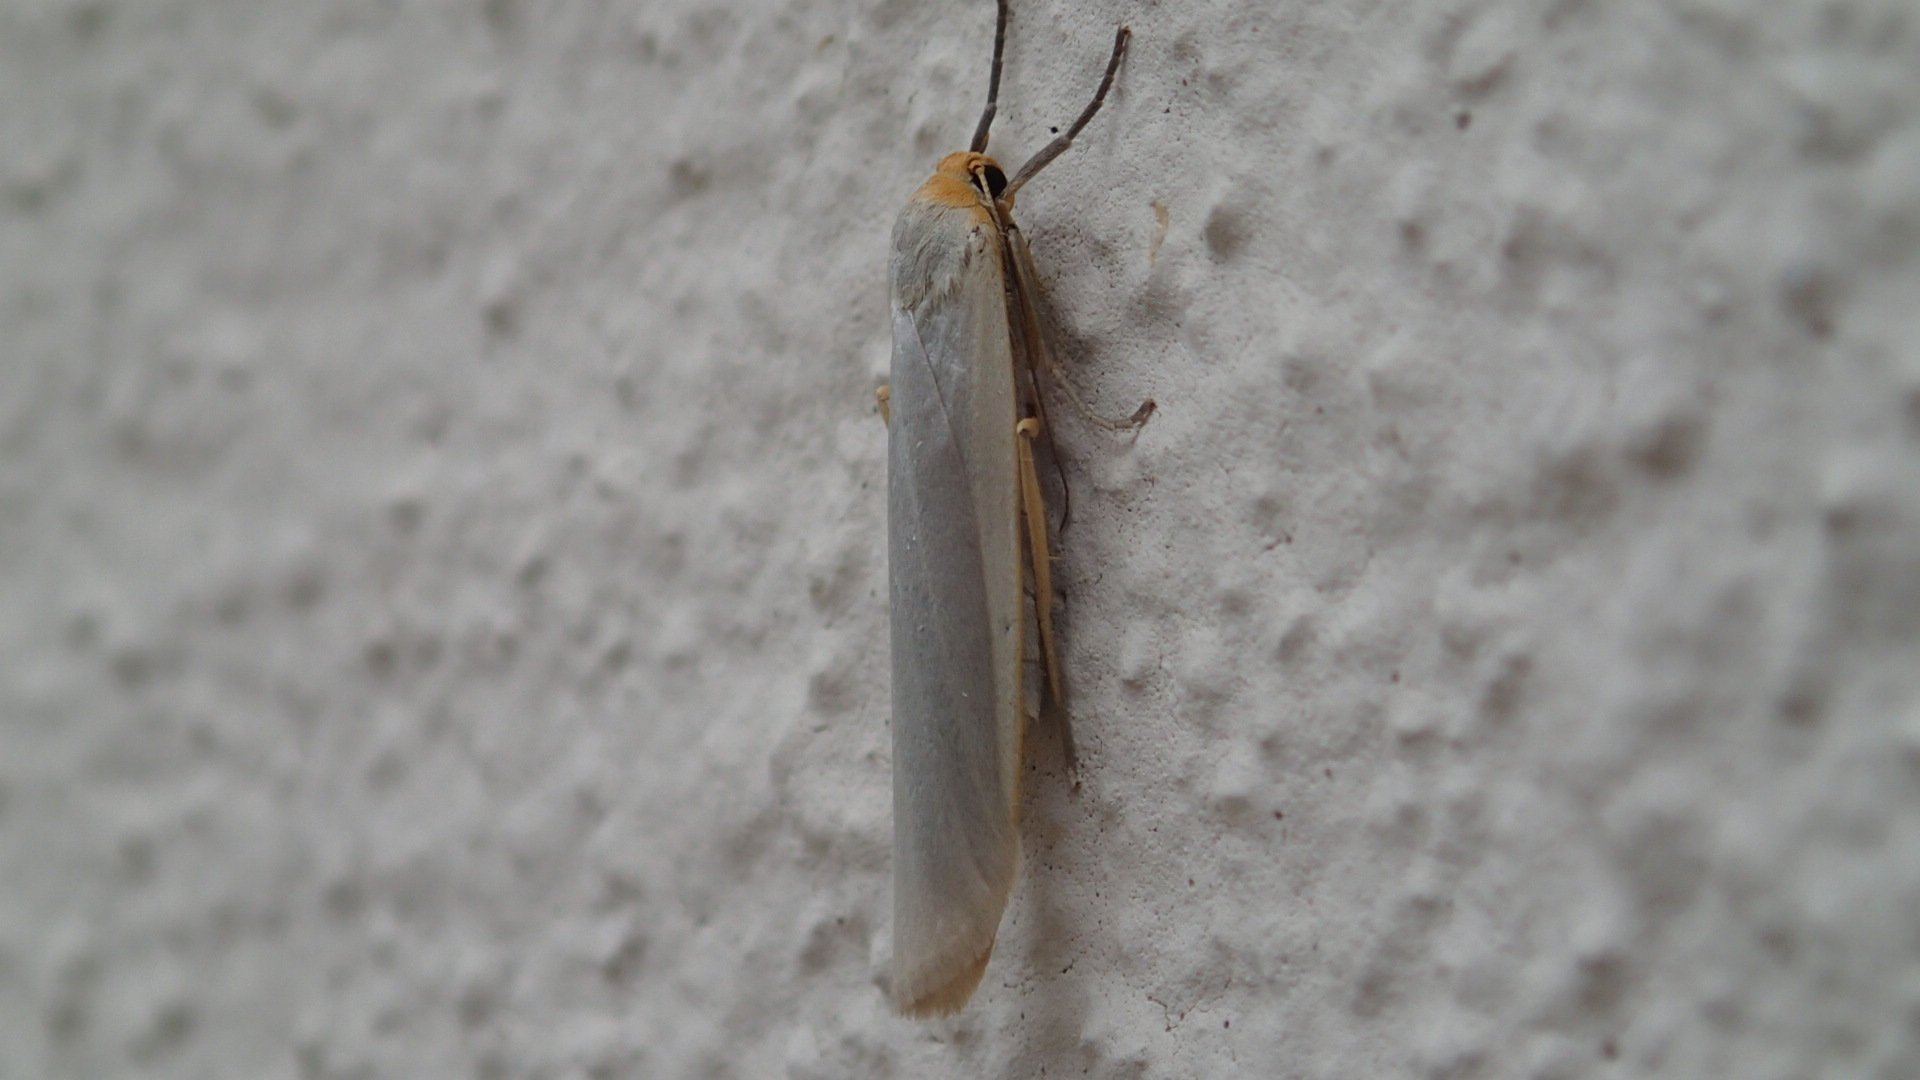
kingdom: Animalia
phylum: Arthropoda
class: Insecta
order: Lepidoptera
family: Erebidae
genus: Eilema
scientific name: Eilema caniola
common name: Hoary footman
